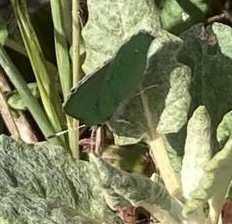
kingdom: Animalia
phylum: Arthropoda
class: Insecta
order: Lepidoptera
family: Lycaenidae
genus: Callophrys
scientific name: Callophrys viridis
